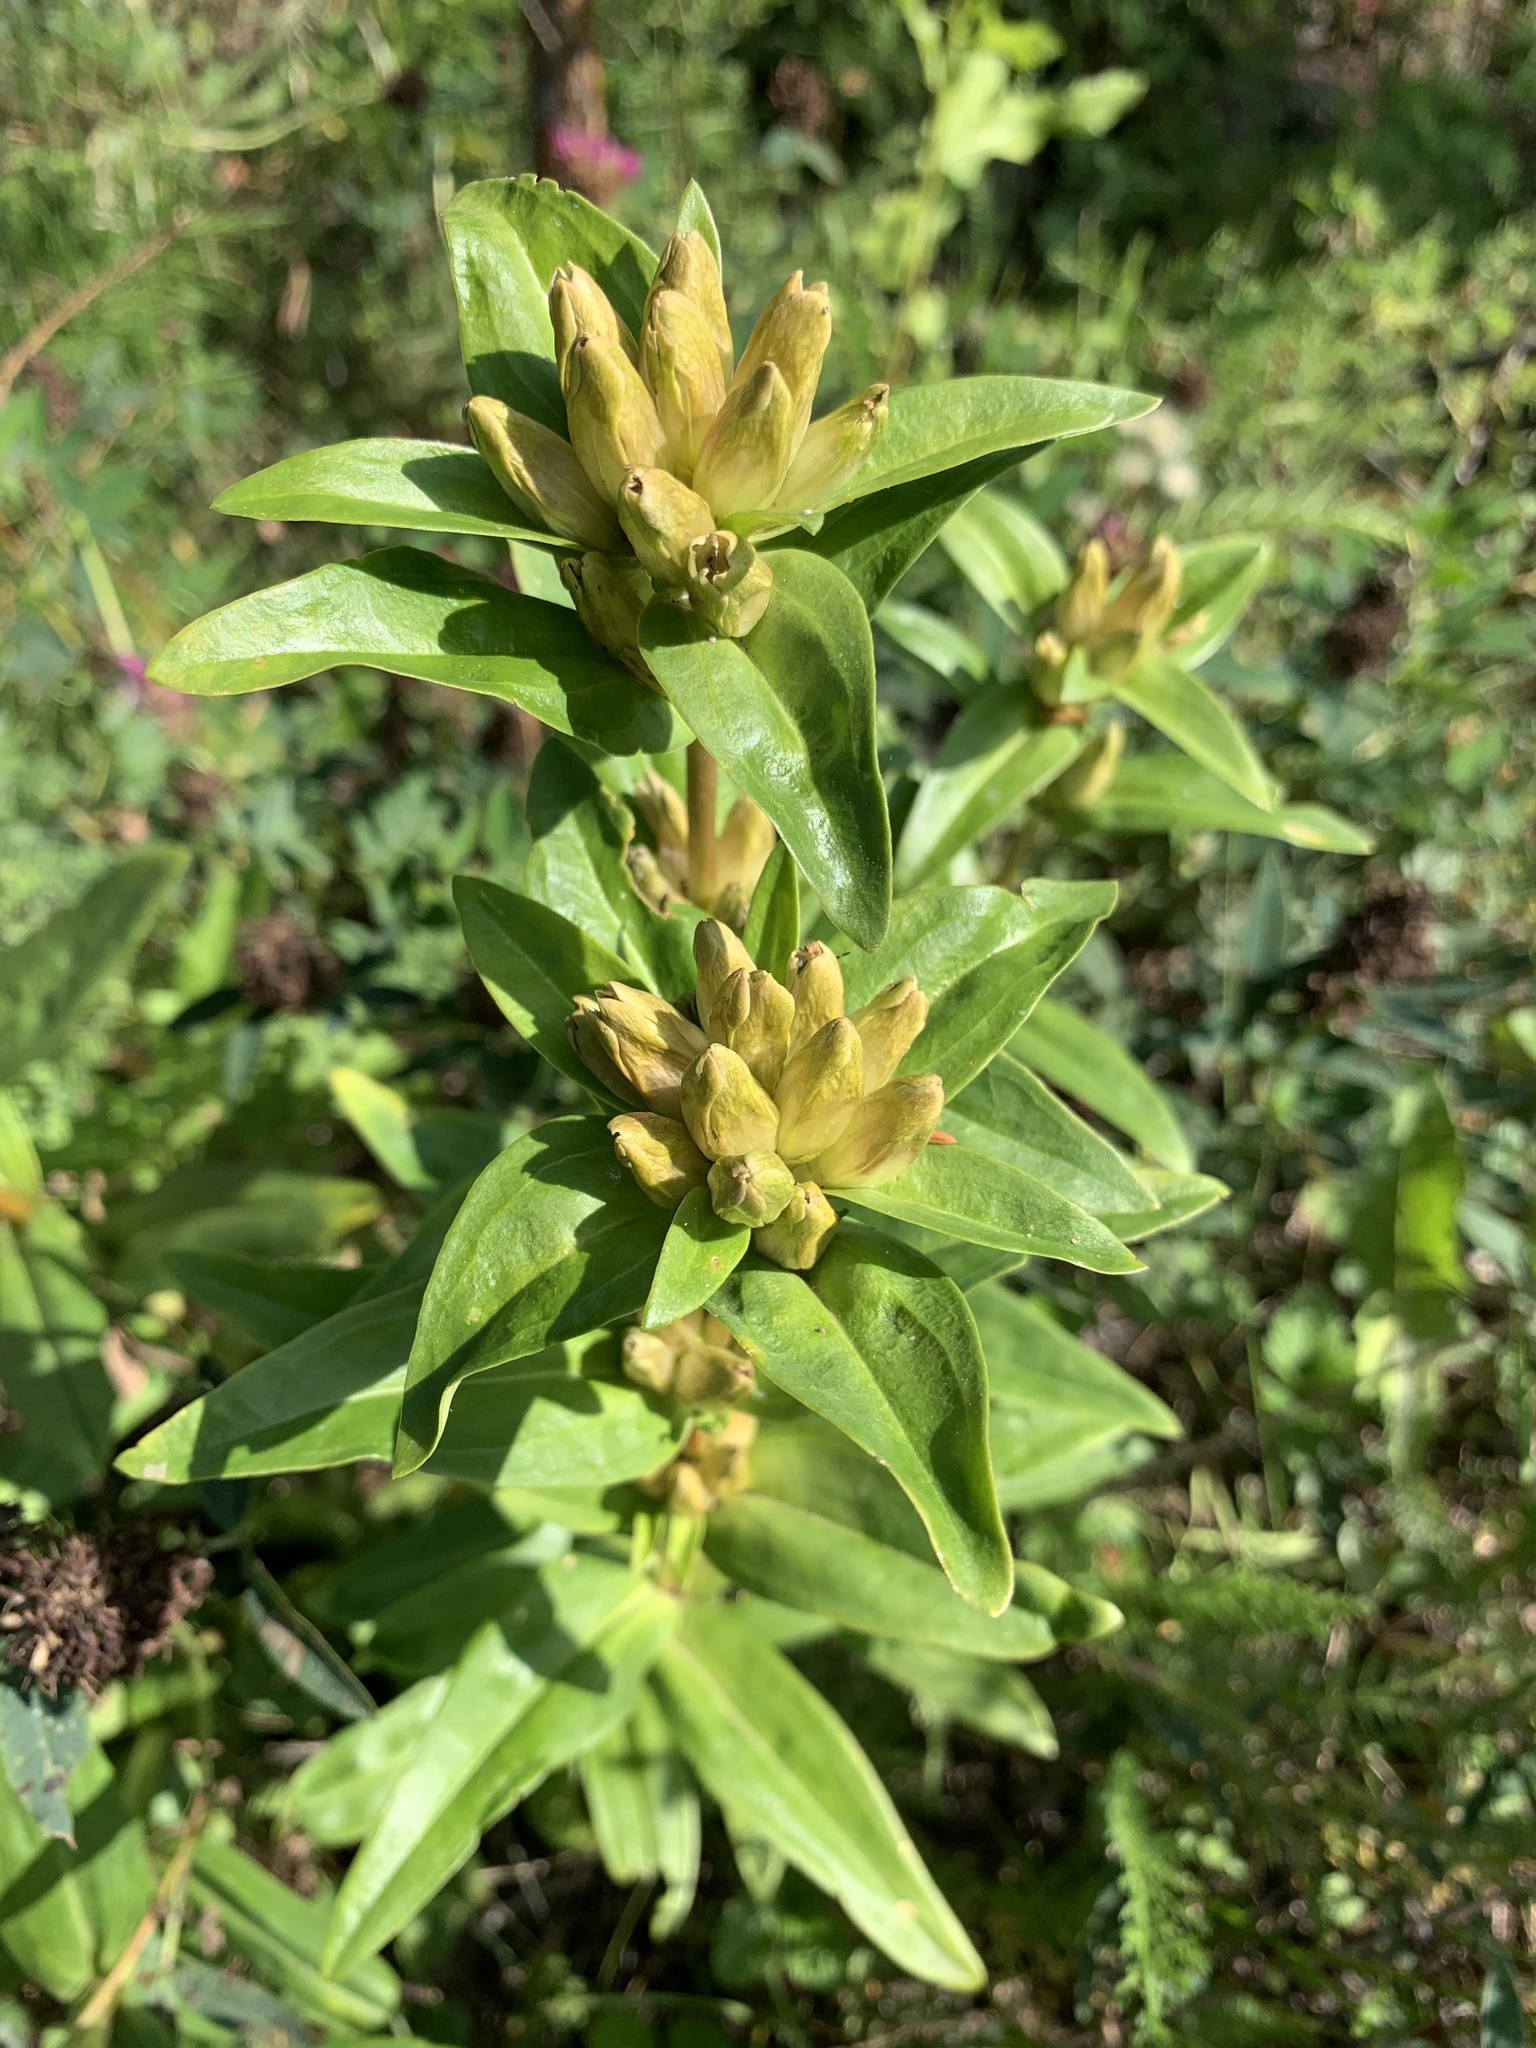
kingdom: Plantae
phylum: Tracheophyta
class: Magnoliopsida
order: Gentianales
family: Gentianaceae
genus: Gentiana
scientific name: Gentiana cruciata
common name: Cross gentian
